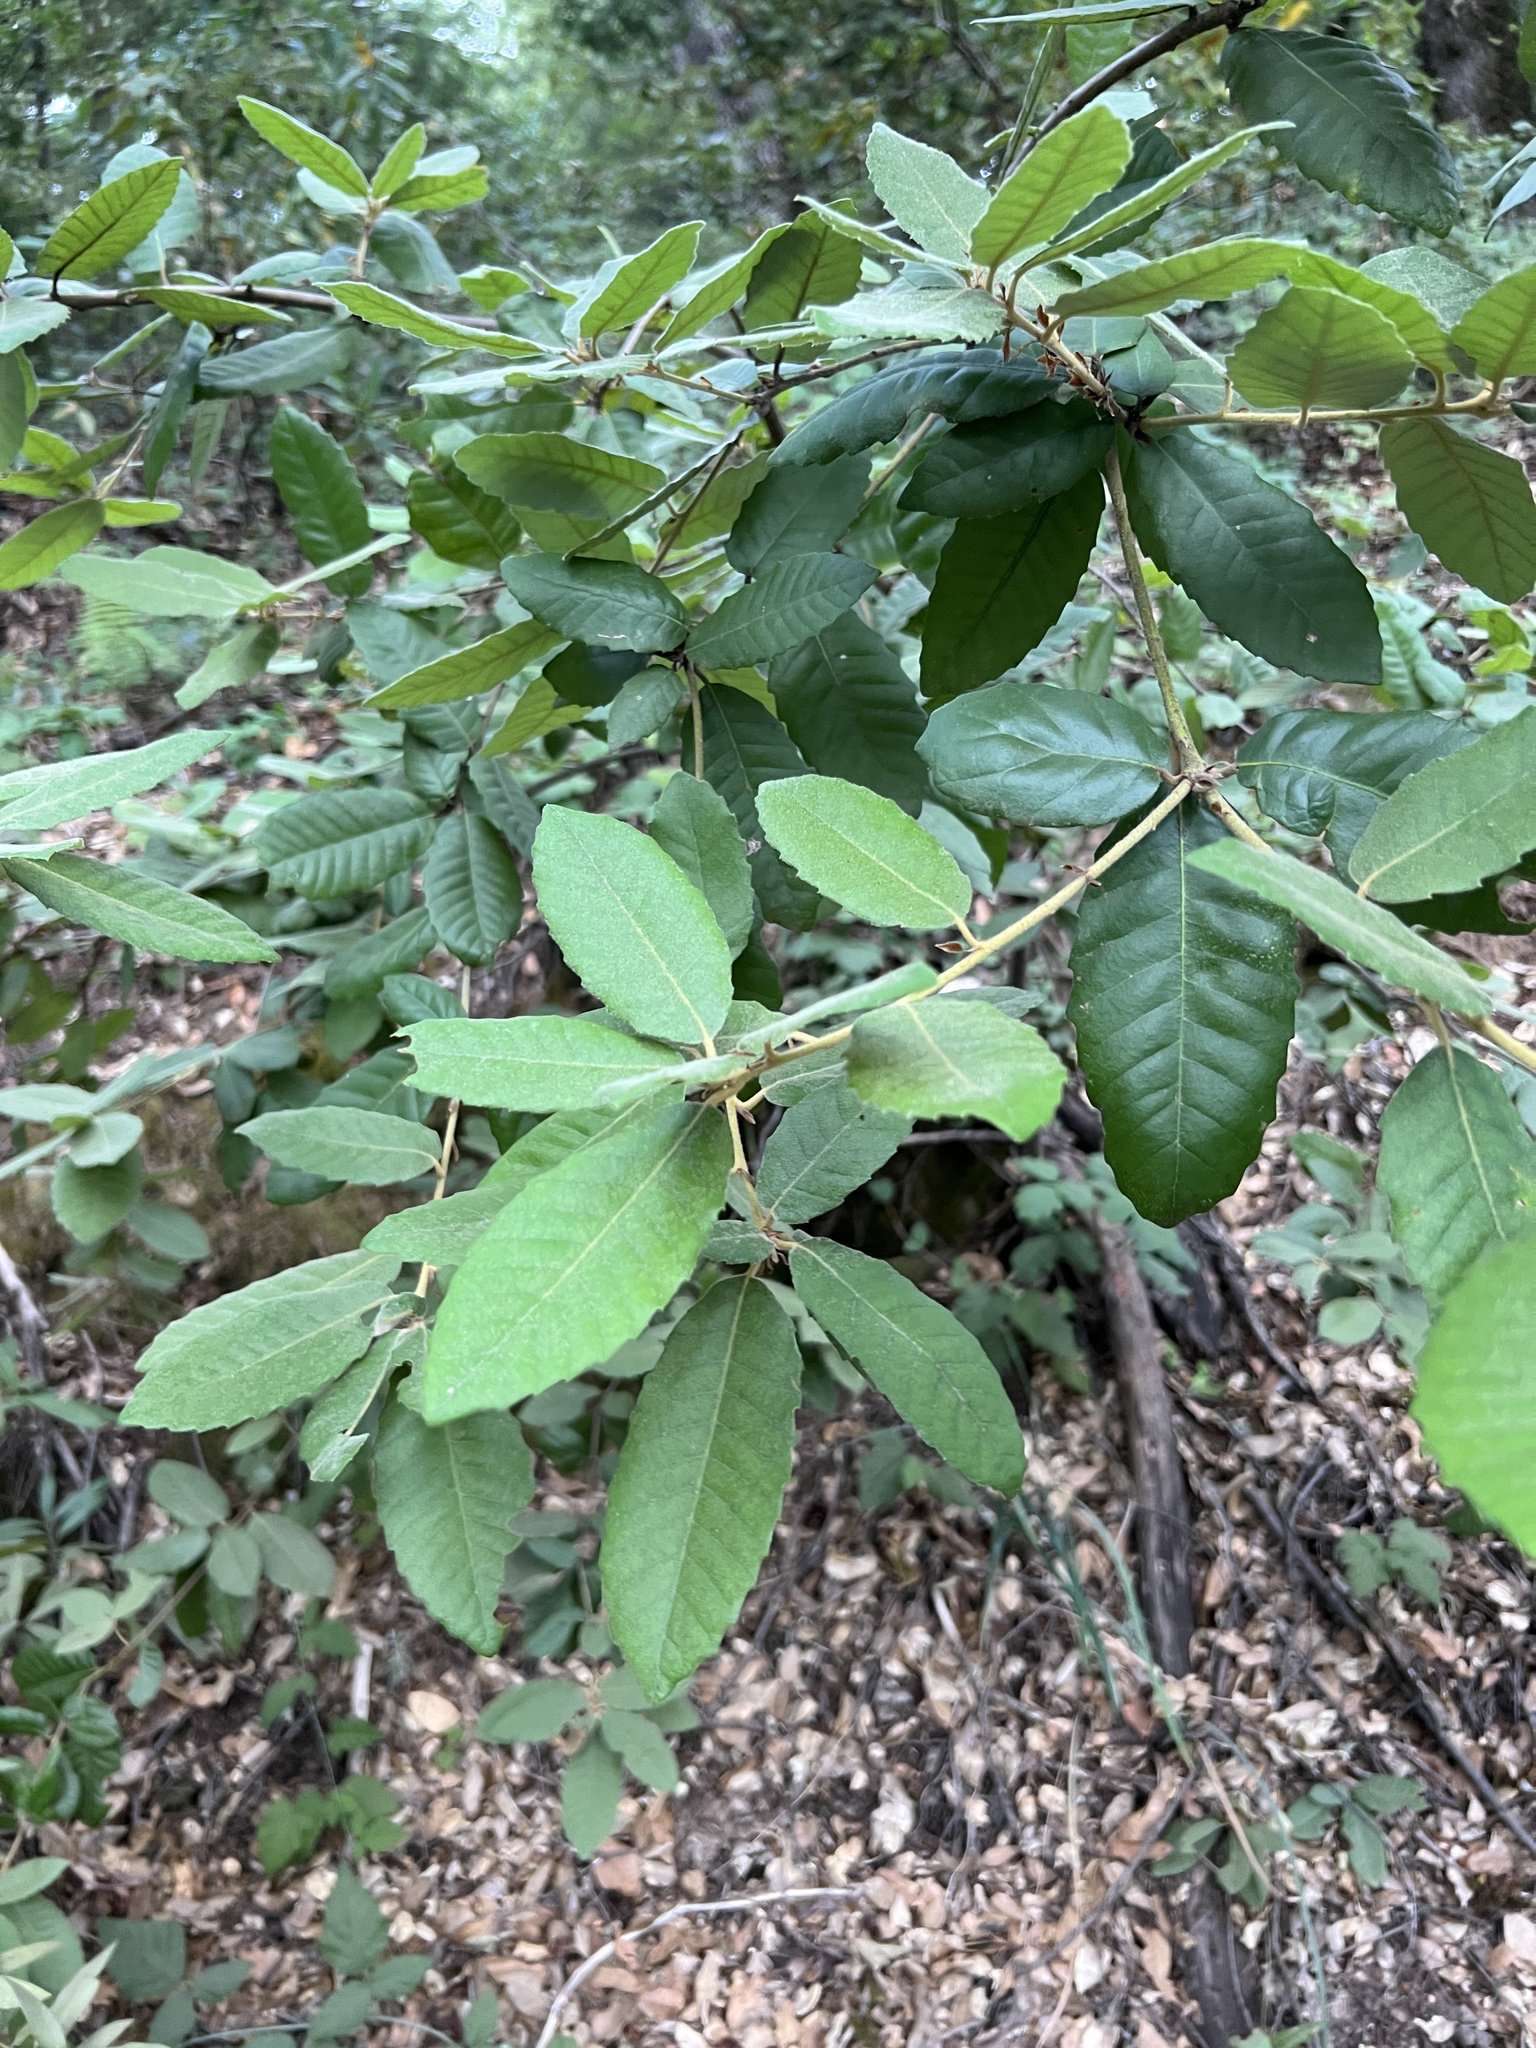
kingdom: Plantae
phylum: Tracheophyta
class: Magnoliopsida
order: Fagales
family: Fagaceae
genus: Notholithocarpus
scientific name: Notholithocarpus densiflorus
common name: Tan bark oak
